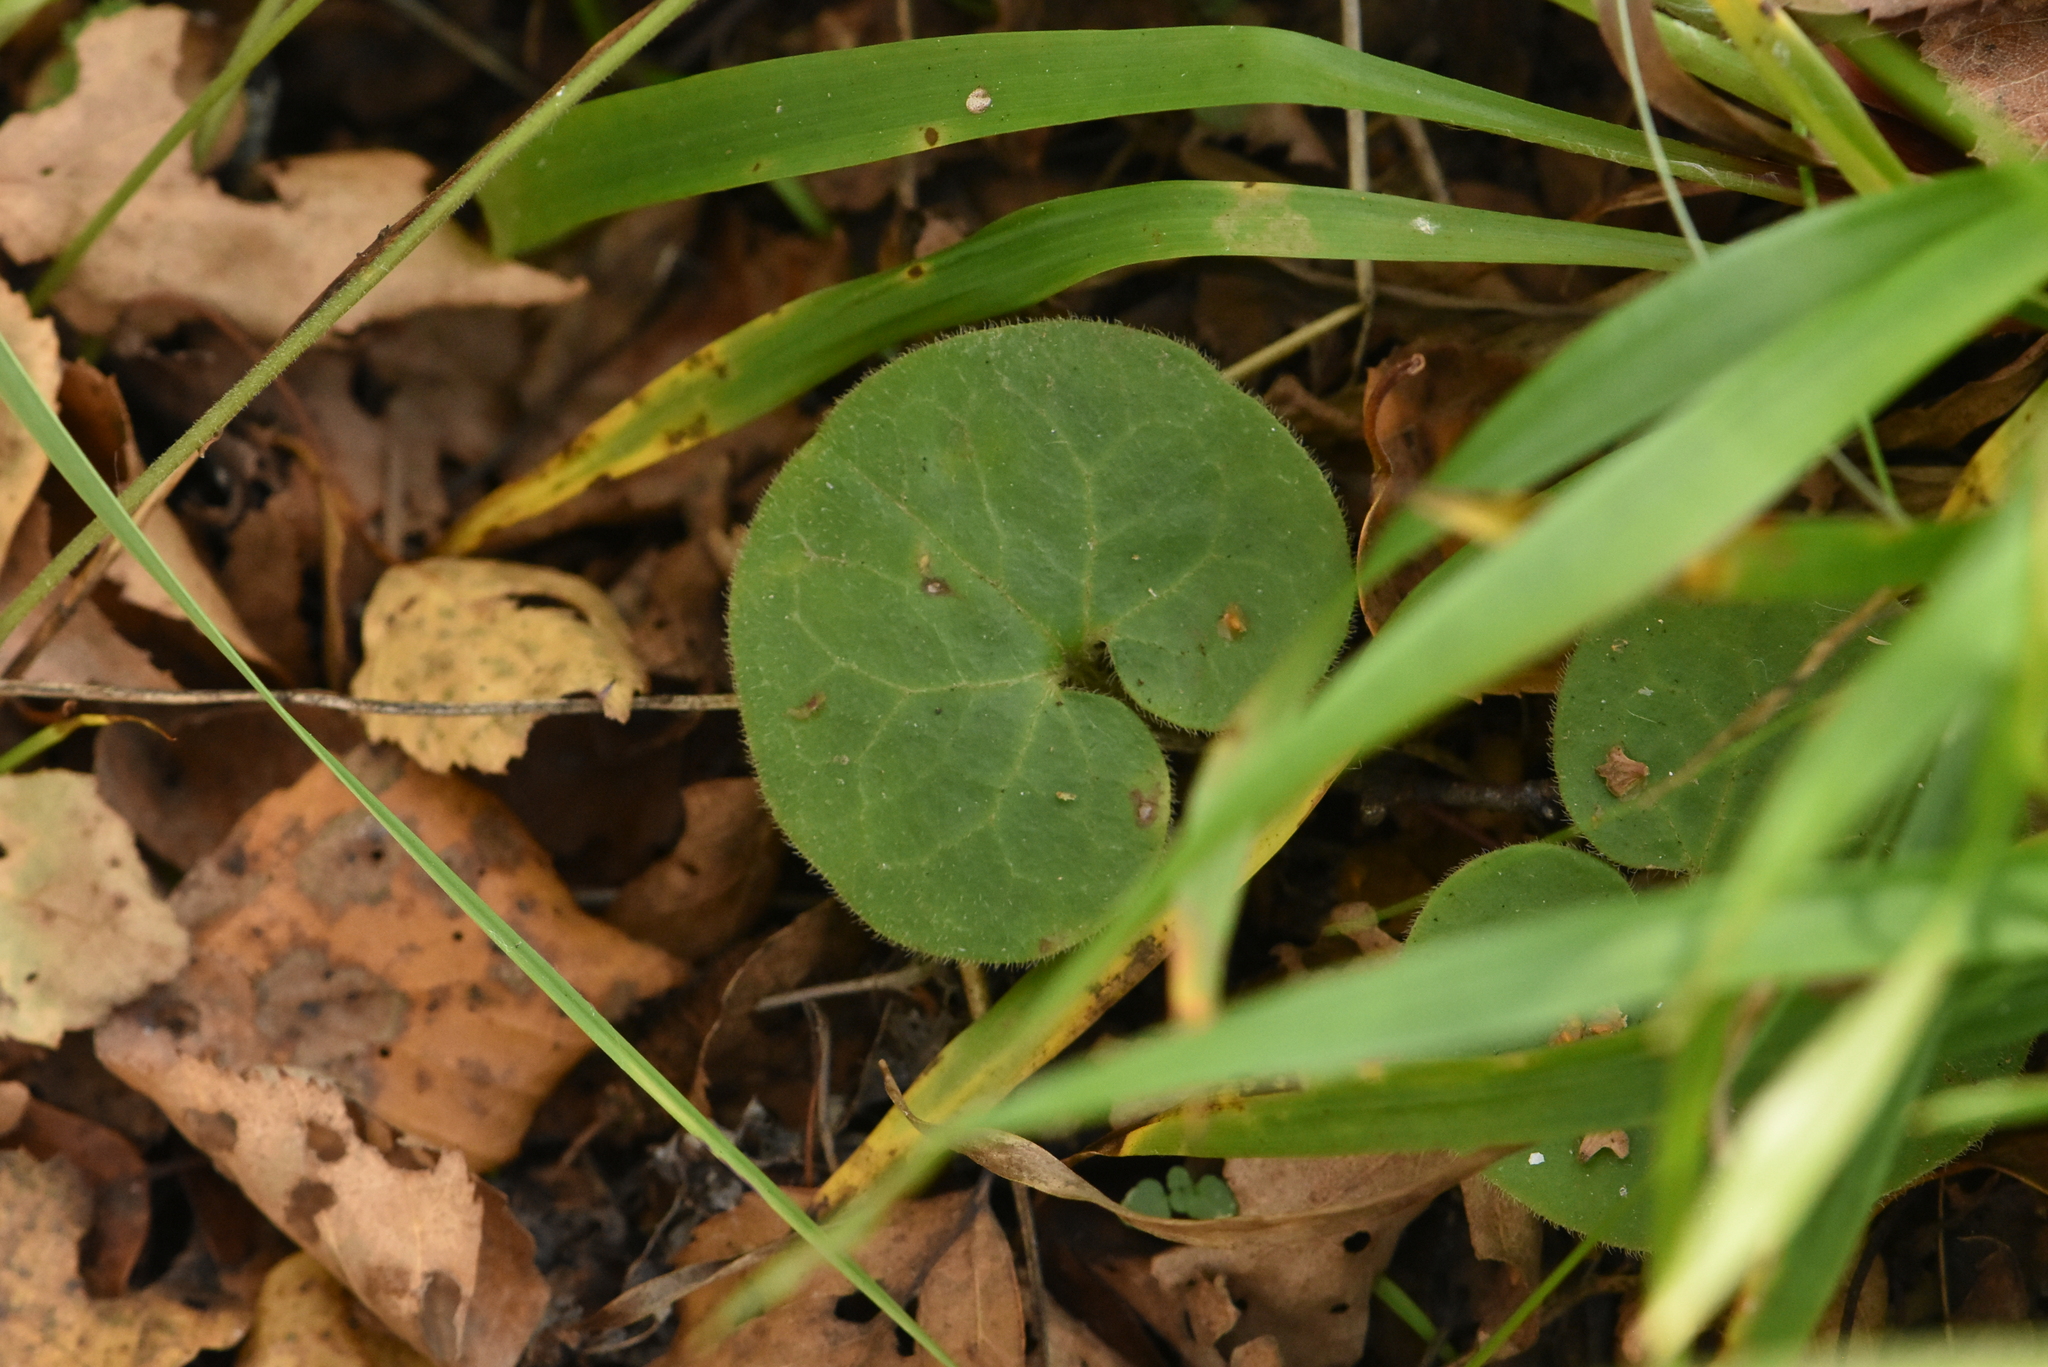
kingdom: Plantae
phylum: Tracheophyta
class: Magnoliopsida
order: Piperales
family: Aristolochiaceae
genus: Asarum
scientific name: Asarum europaeum
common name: Asarabacca
